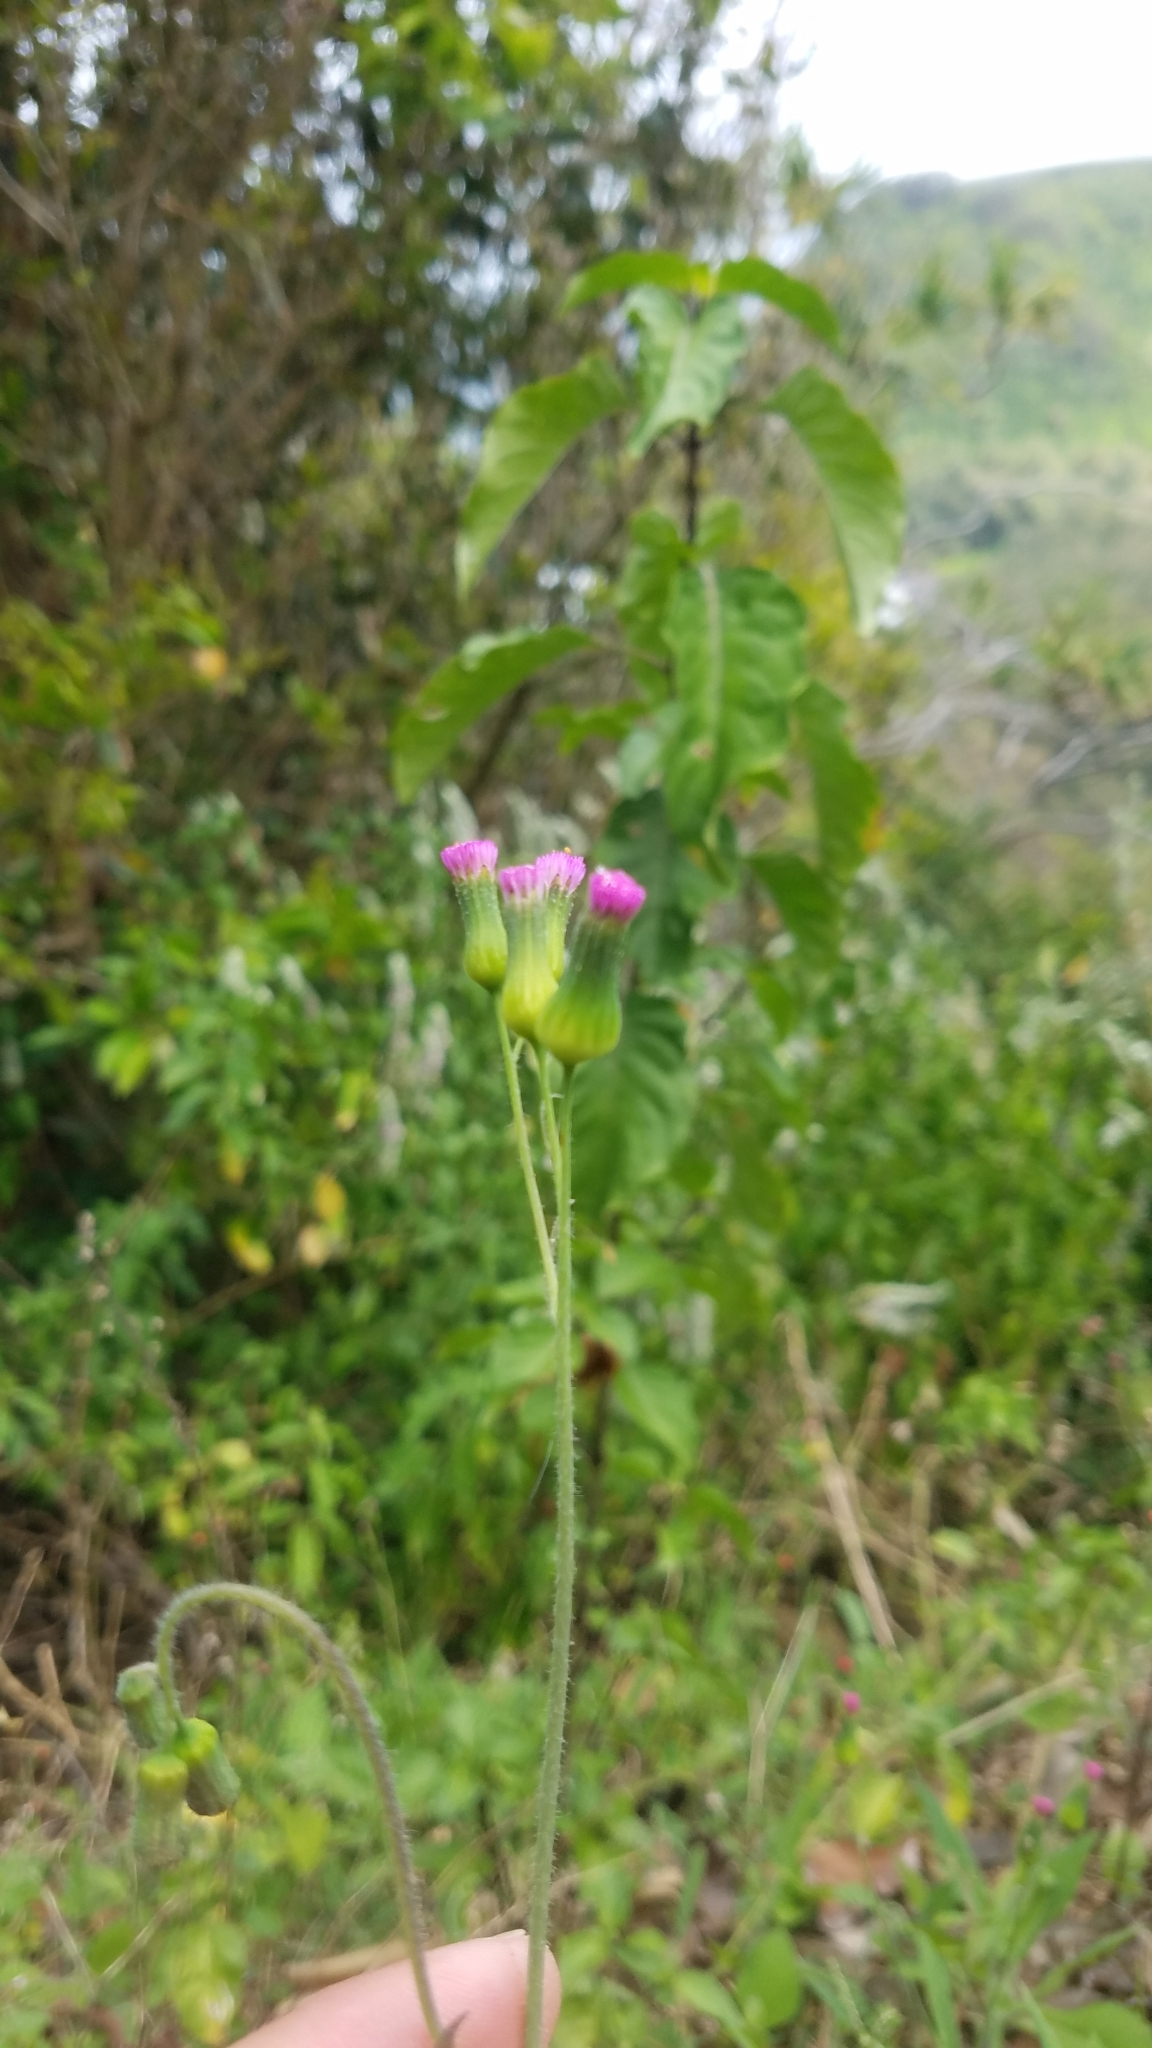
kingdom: Plantae
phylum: Tracheophyta
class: Magnoliopsida
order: Asterales
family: Asteraceae
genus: Emilia
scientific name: Emilia sonchifolia
